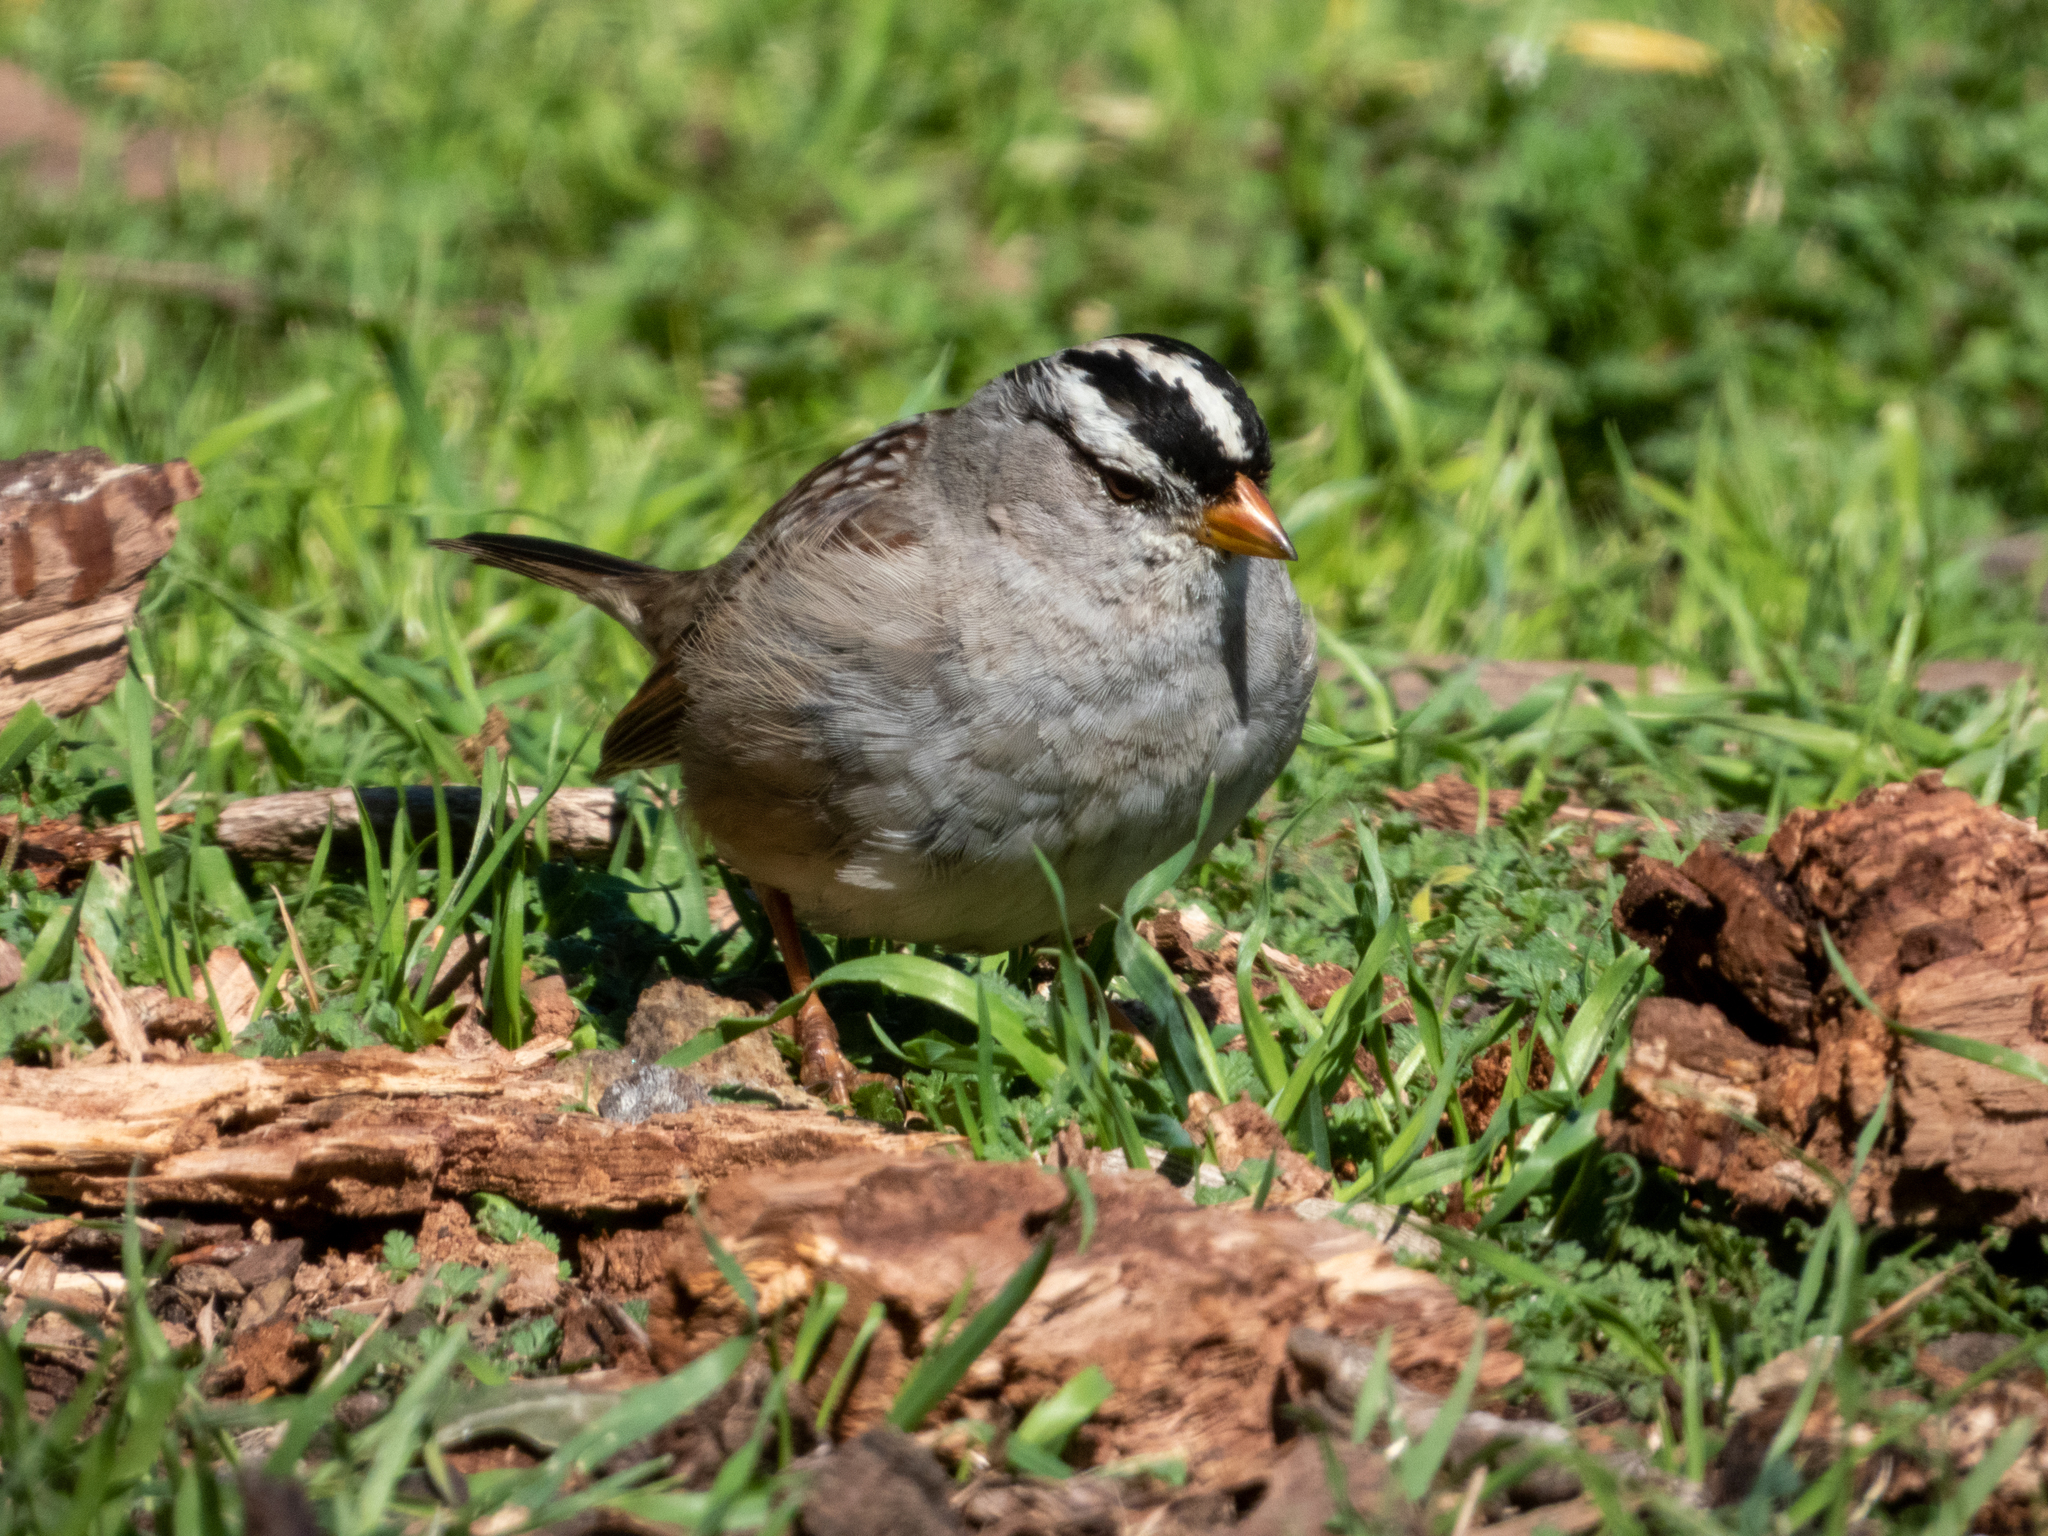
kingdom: Animalia
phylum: Chordata
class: Aves
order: Passeriformes
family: Passerellidae
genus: Zonotrichia
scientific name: Zonotrichia leucophrys
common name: White-crowned sparrow
